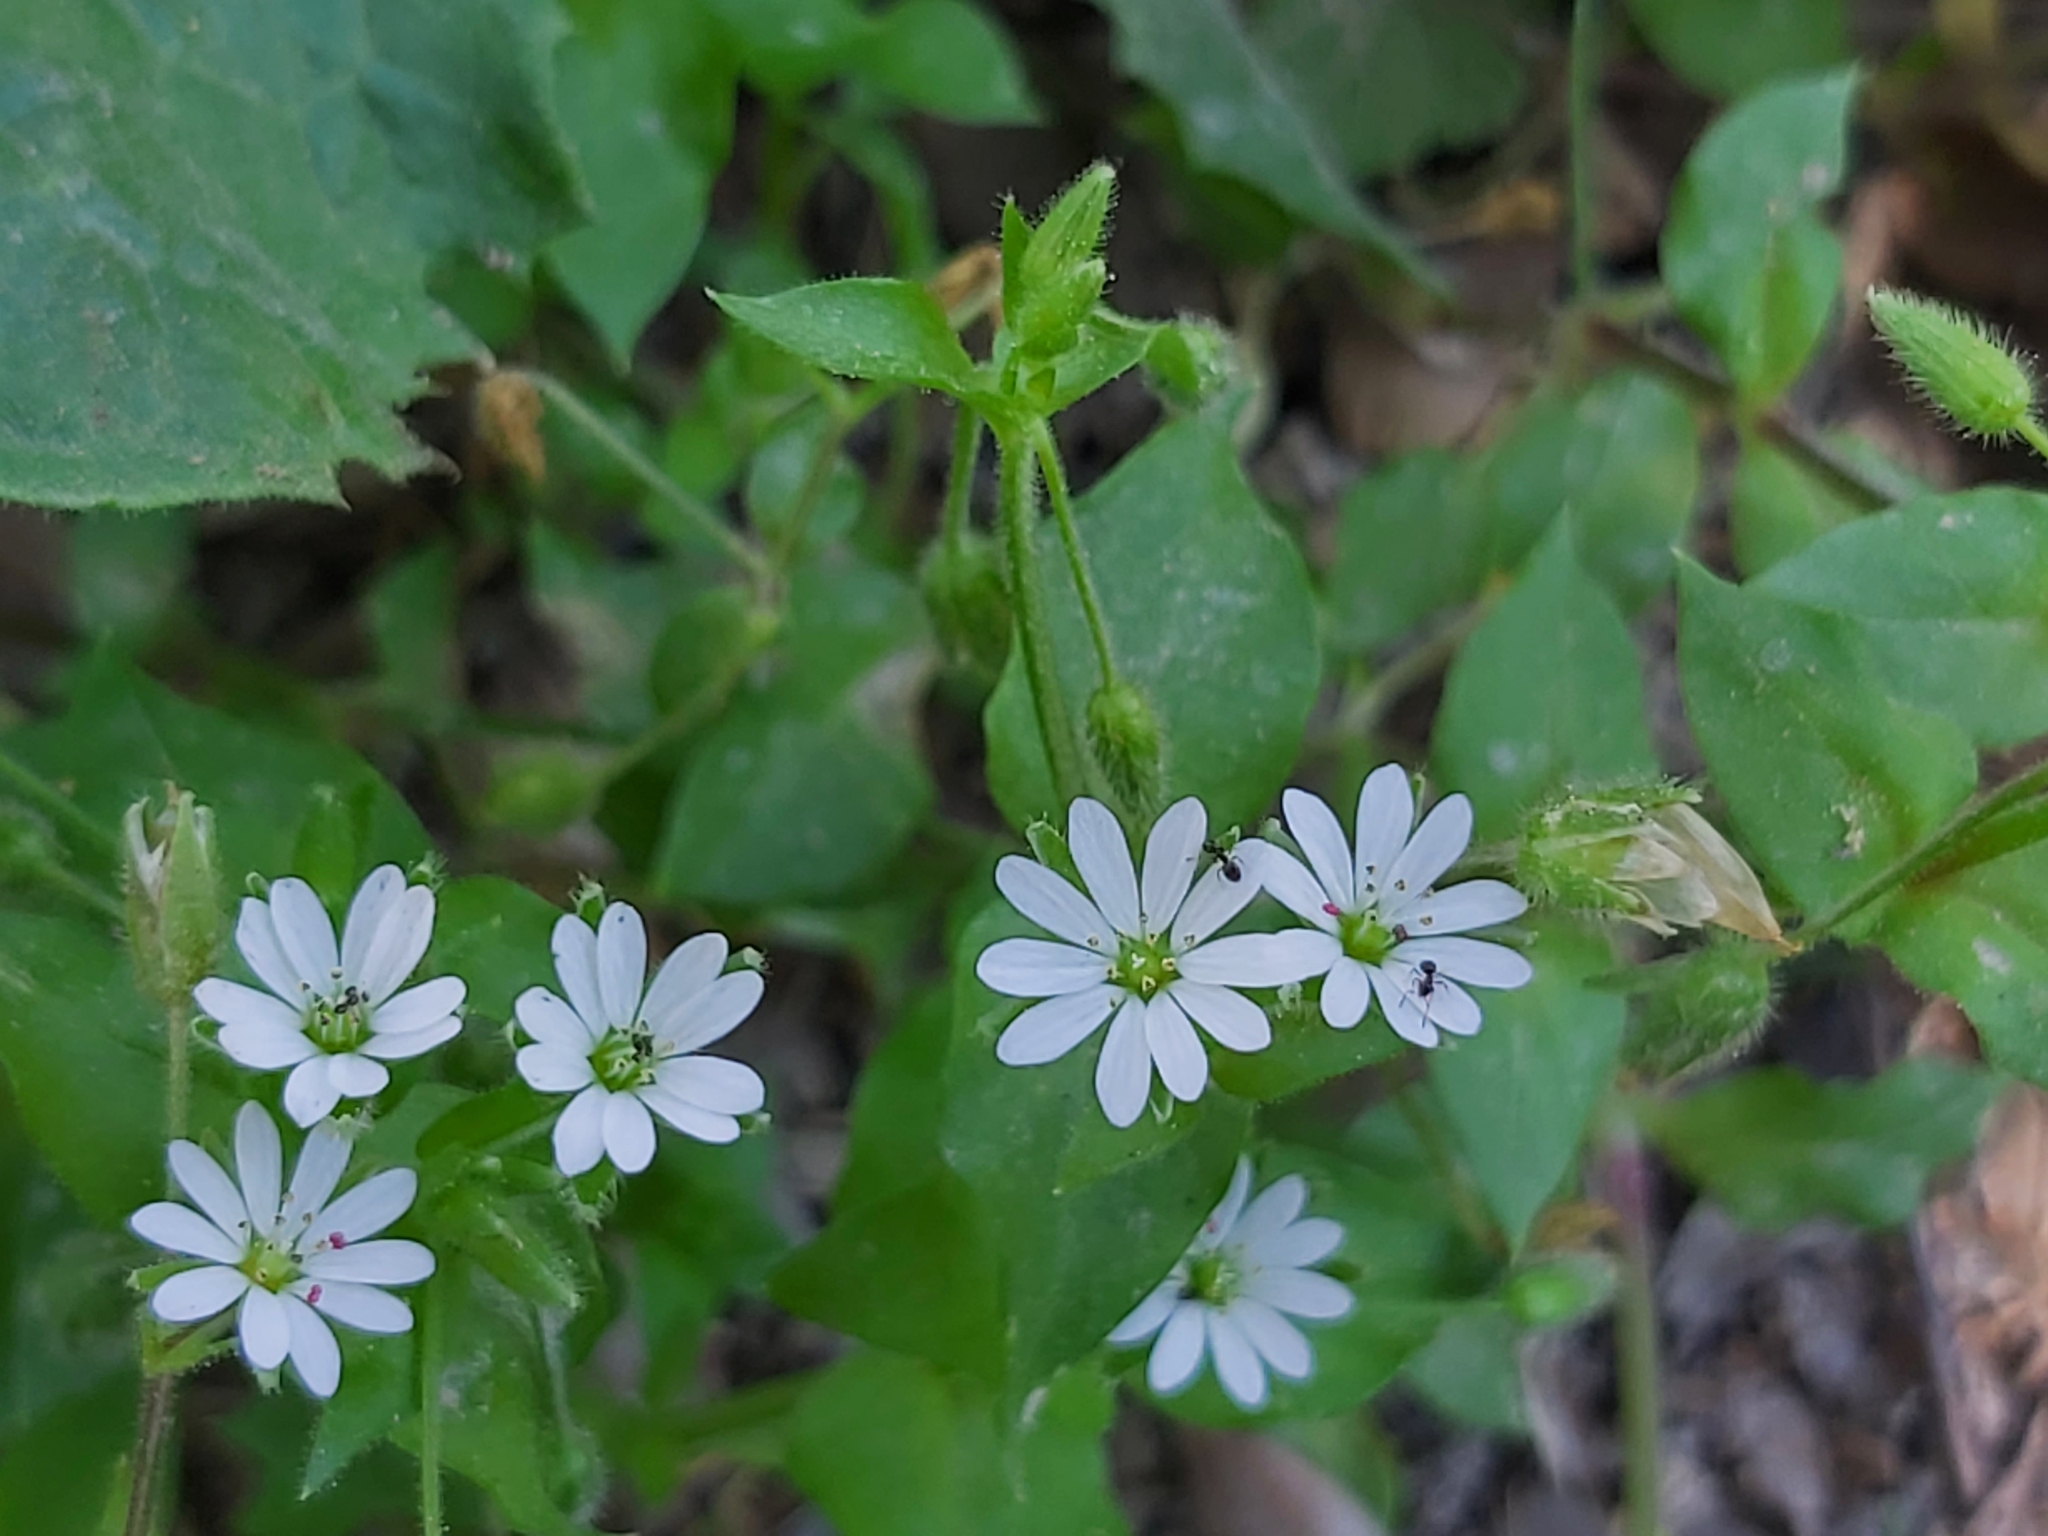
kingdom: Plantae
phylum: Tracheophyta
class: Magnoliopsida
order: Caryophyllales
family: Caryophyllaceae
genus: Stellaria
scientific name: Stellaria cupaniana
